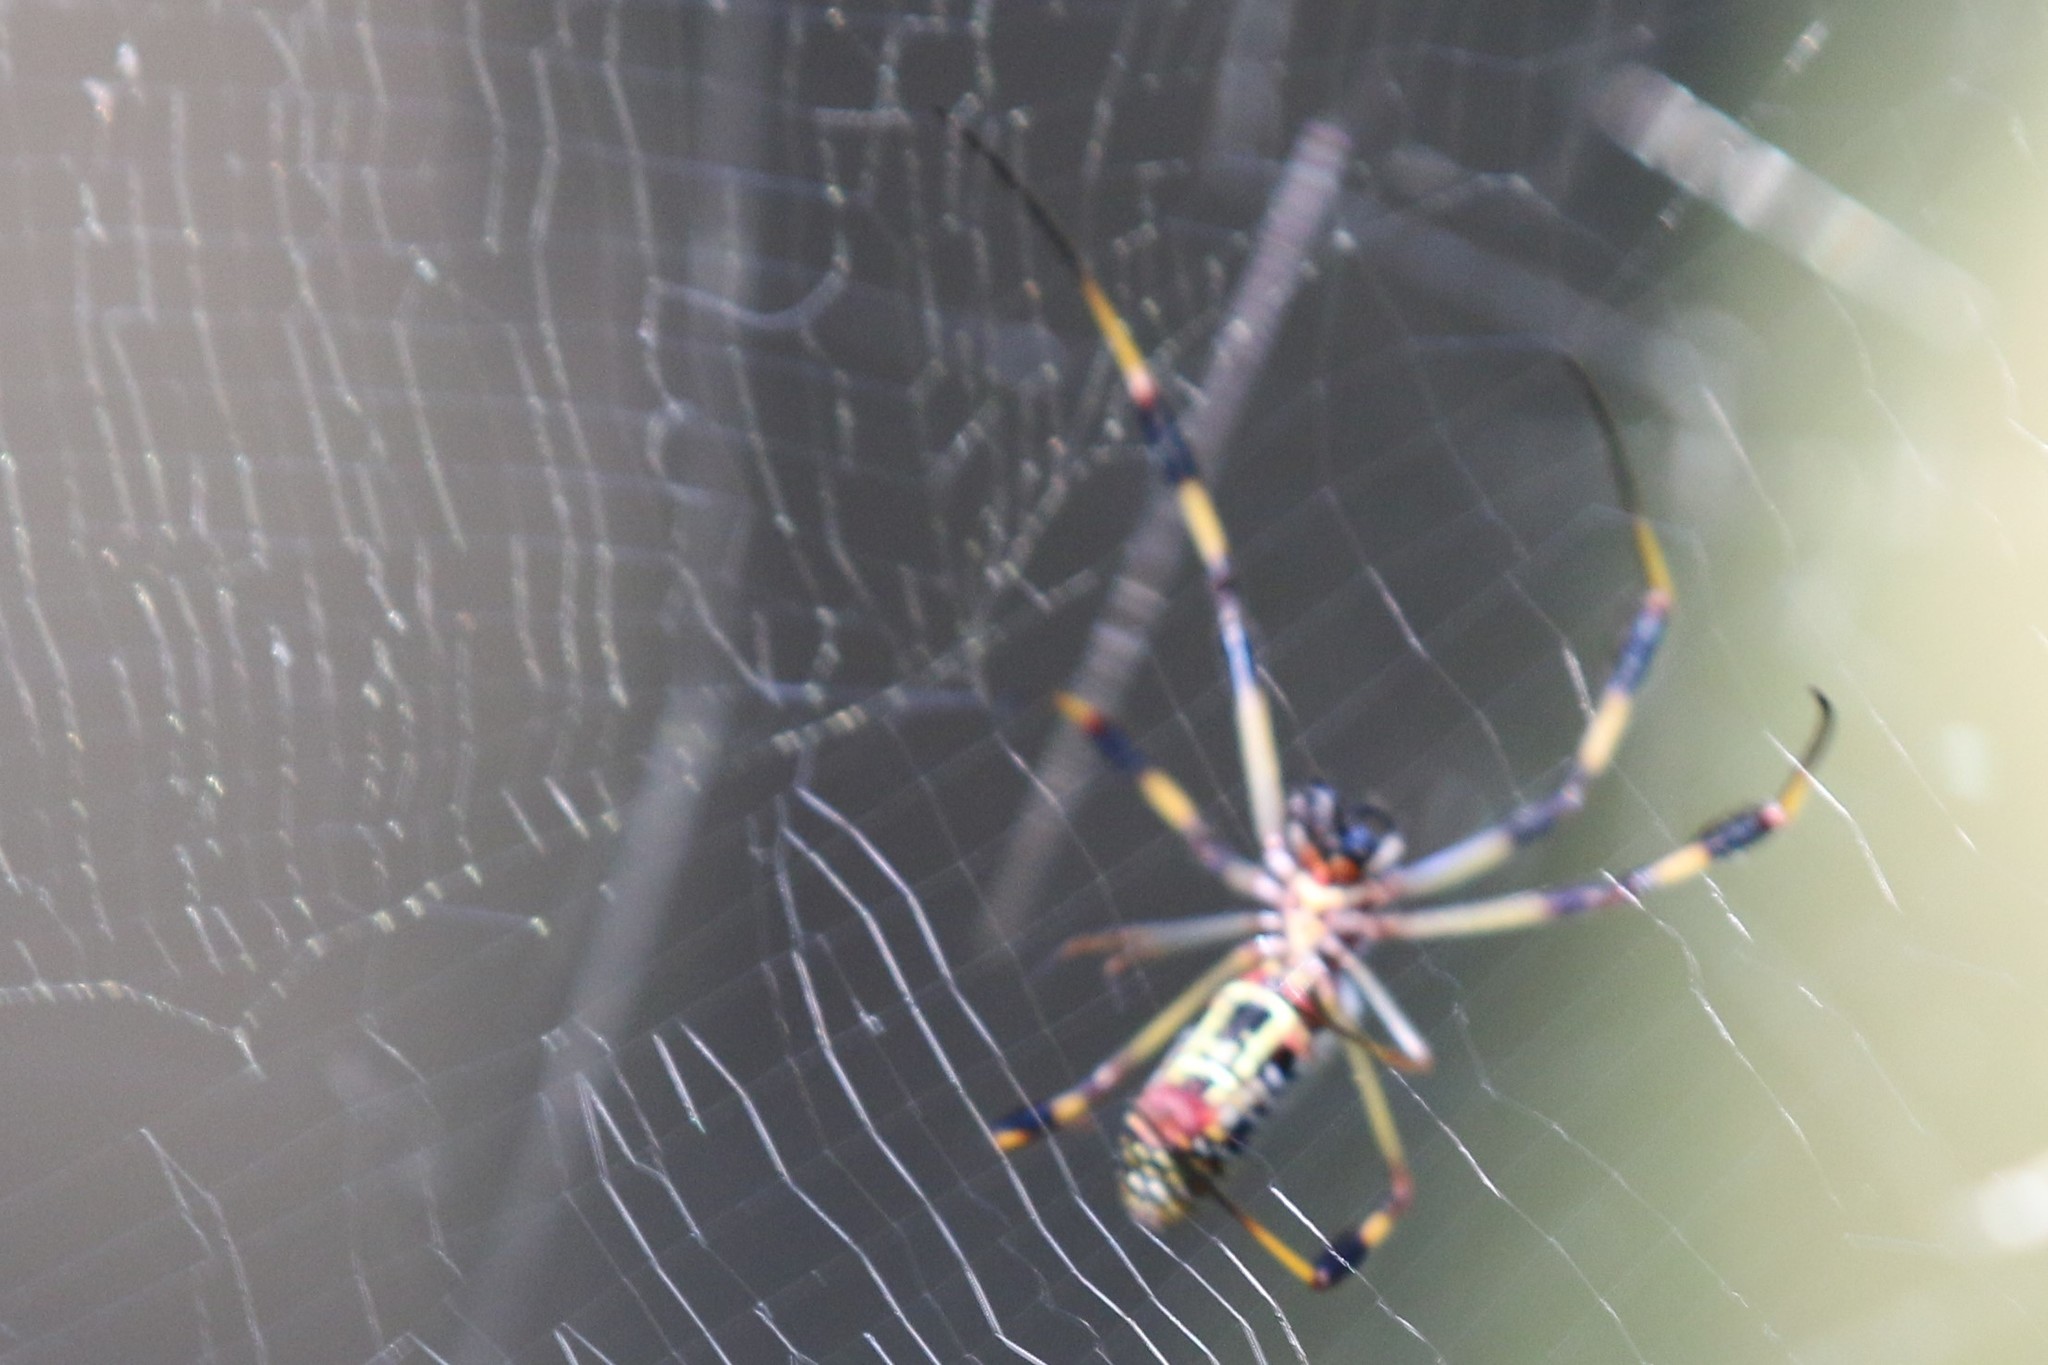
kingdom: Animalia
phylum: Arthropoda
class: Arachnida
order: Araneae
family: Araneidae
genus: Trichonephila
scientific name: Trichonephila clavipes
